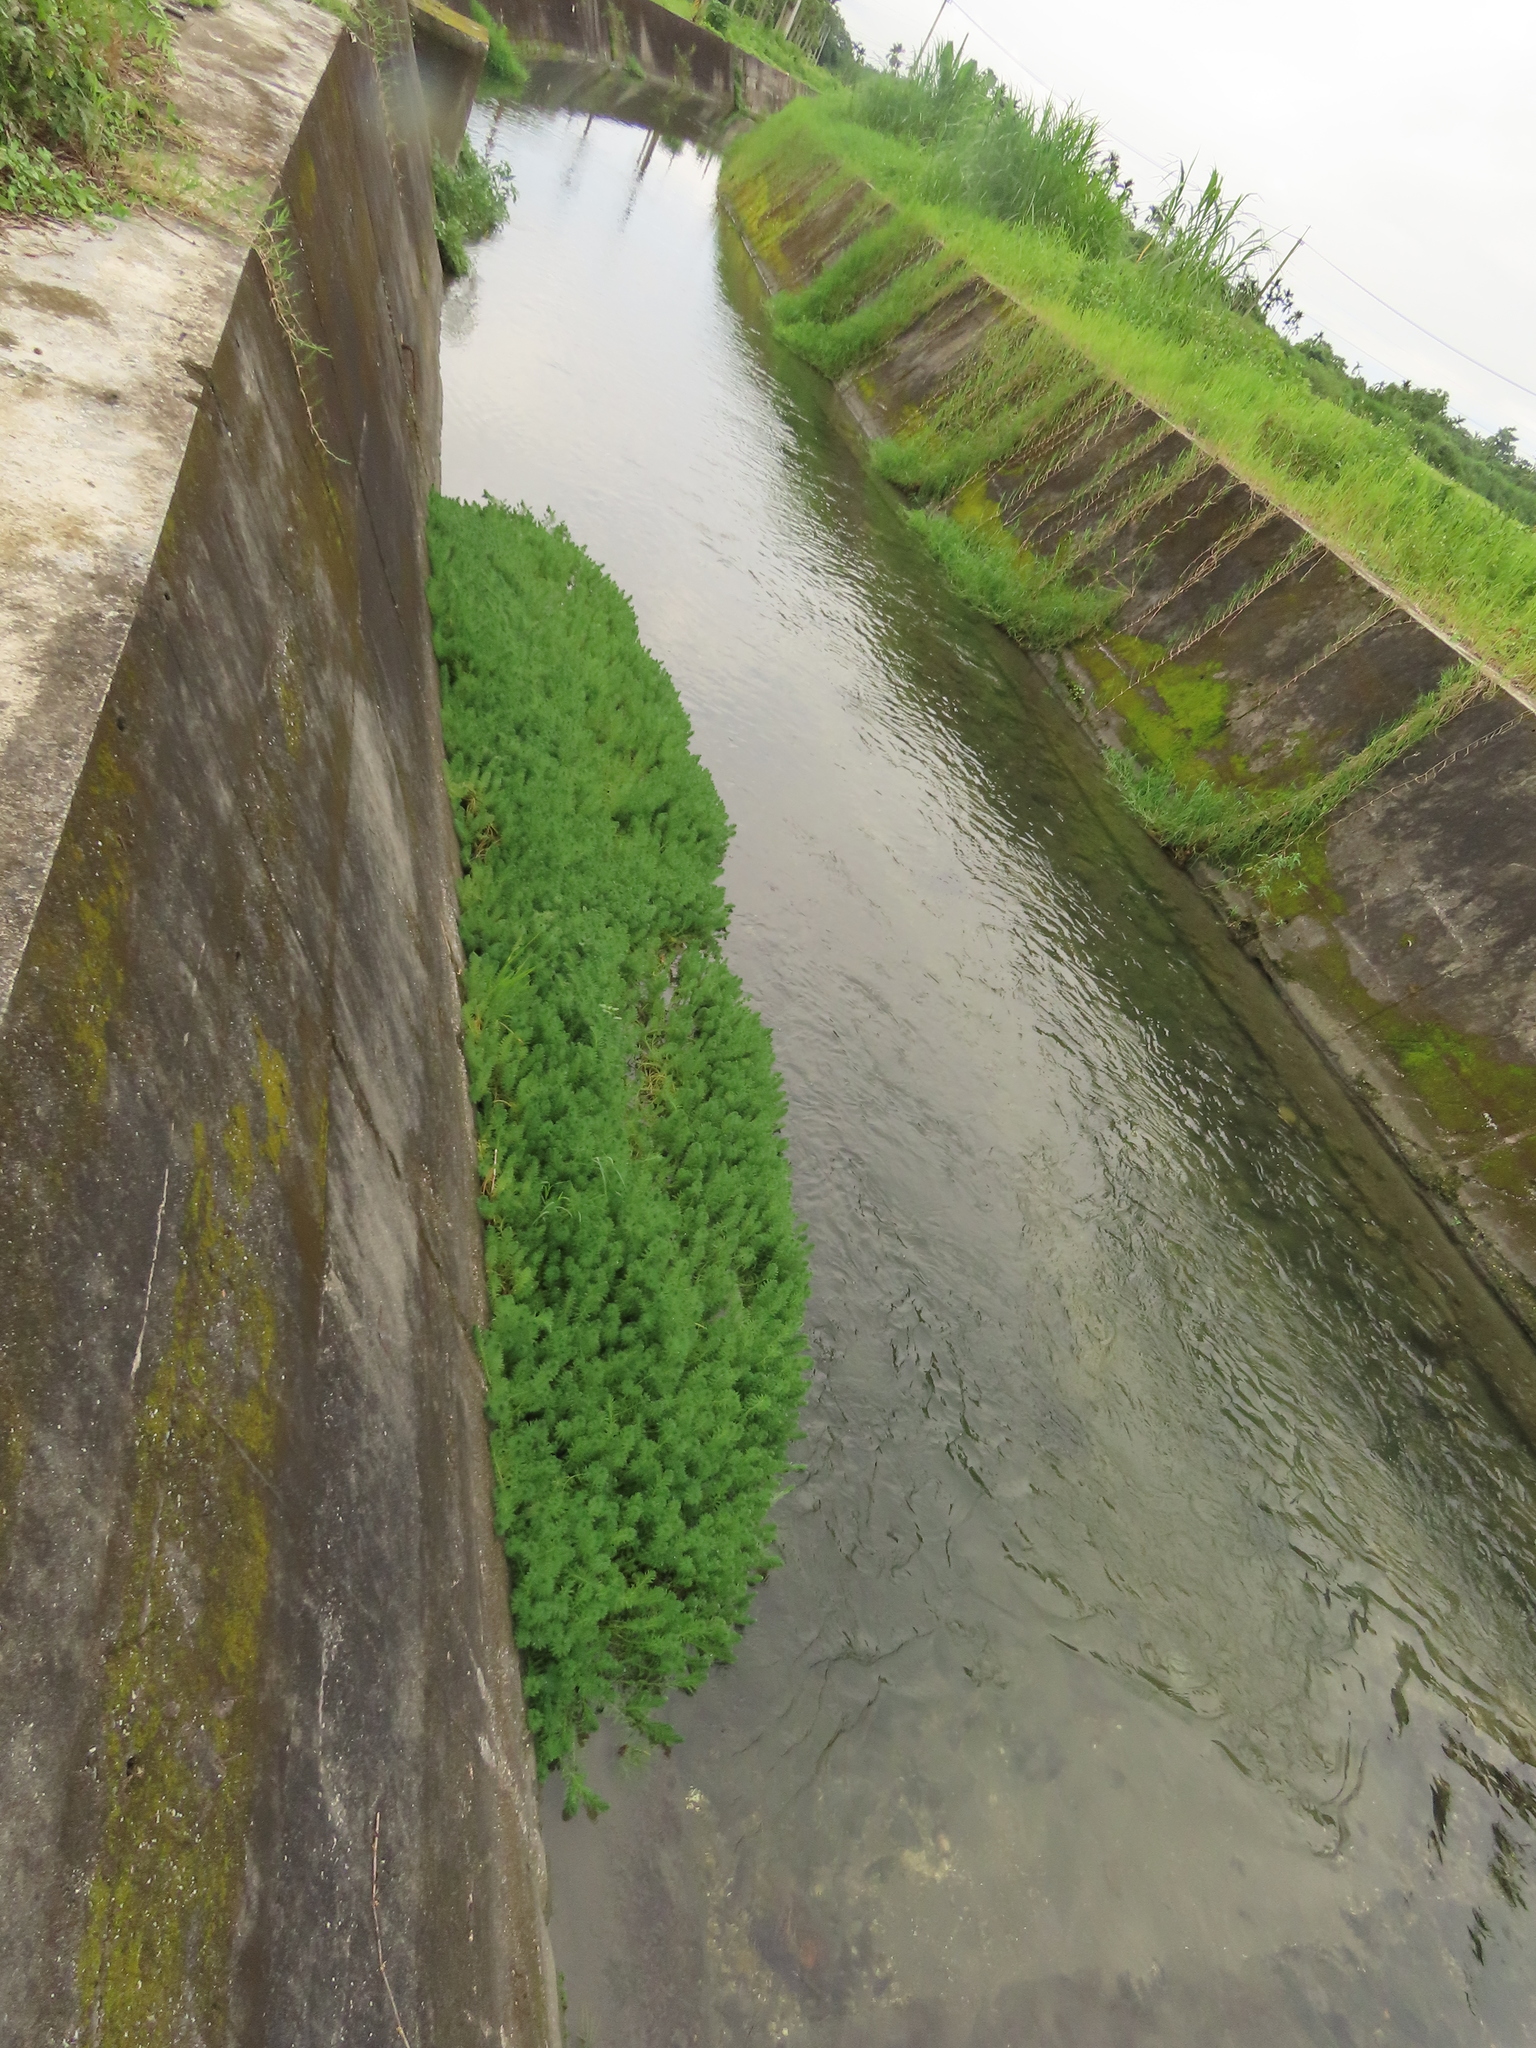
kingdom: Plantae
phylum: Tracheophyta
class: Magnoliopsida
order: Saxifragales
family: Haloragaceae
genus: Myriophyllum
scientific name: Myriophyllum aquaticum
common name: Parrot's feather
